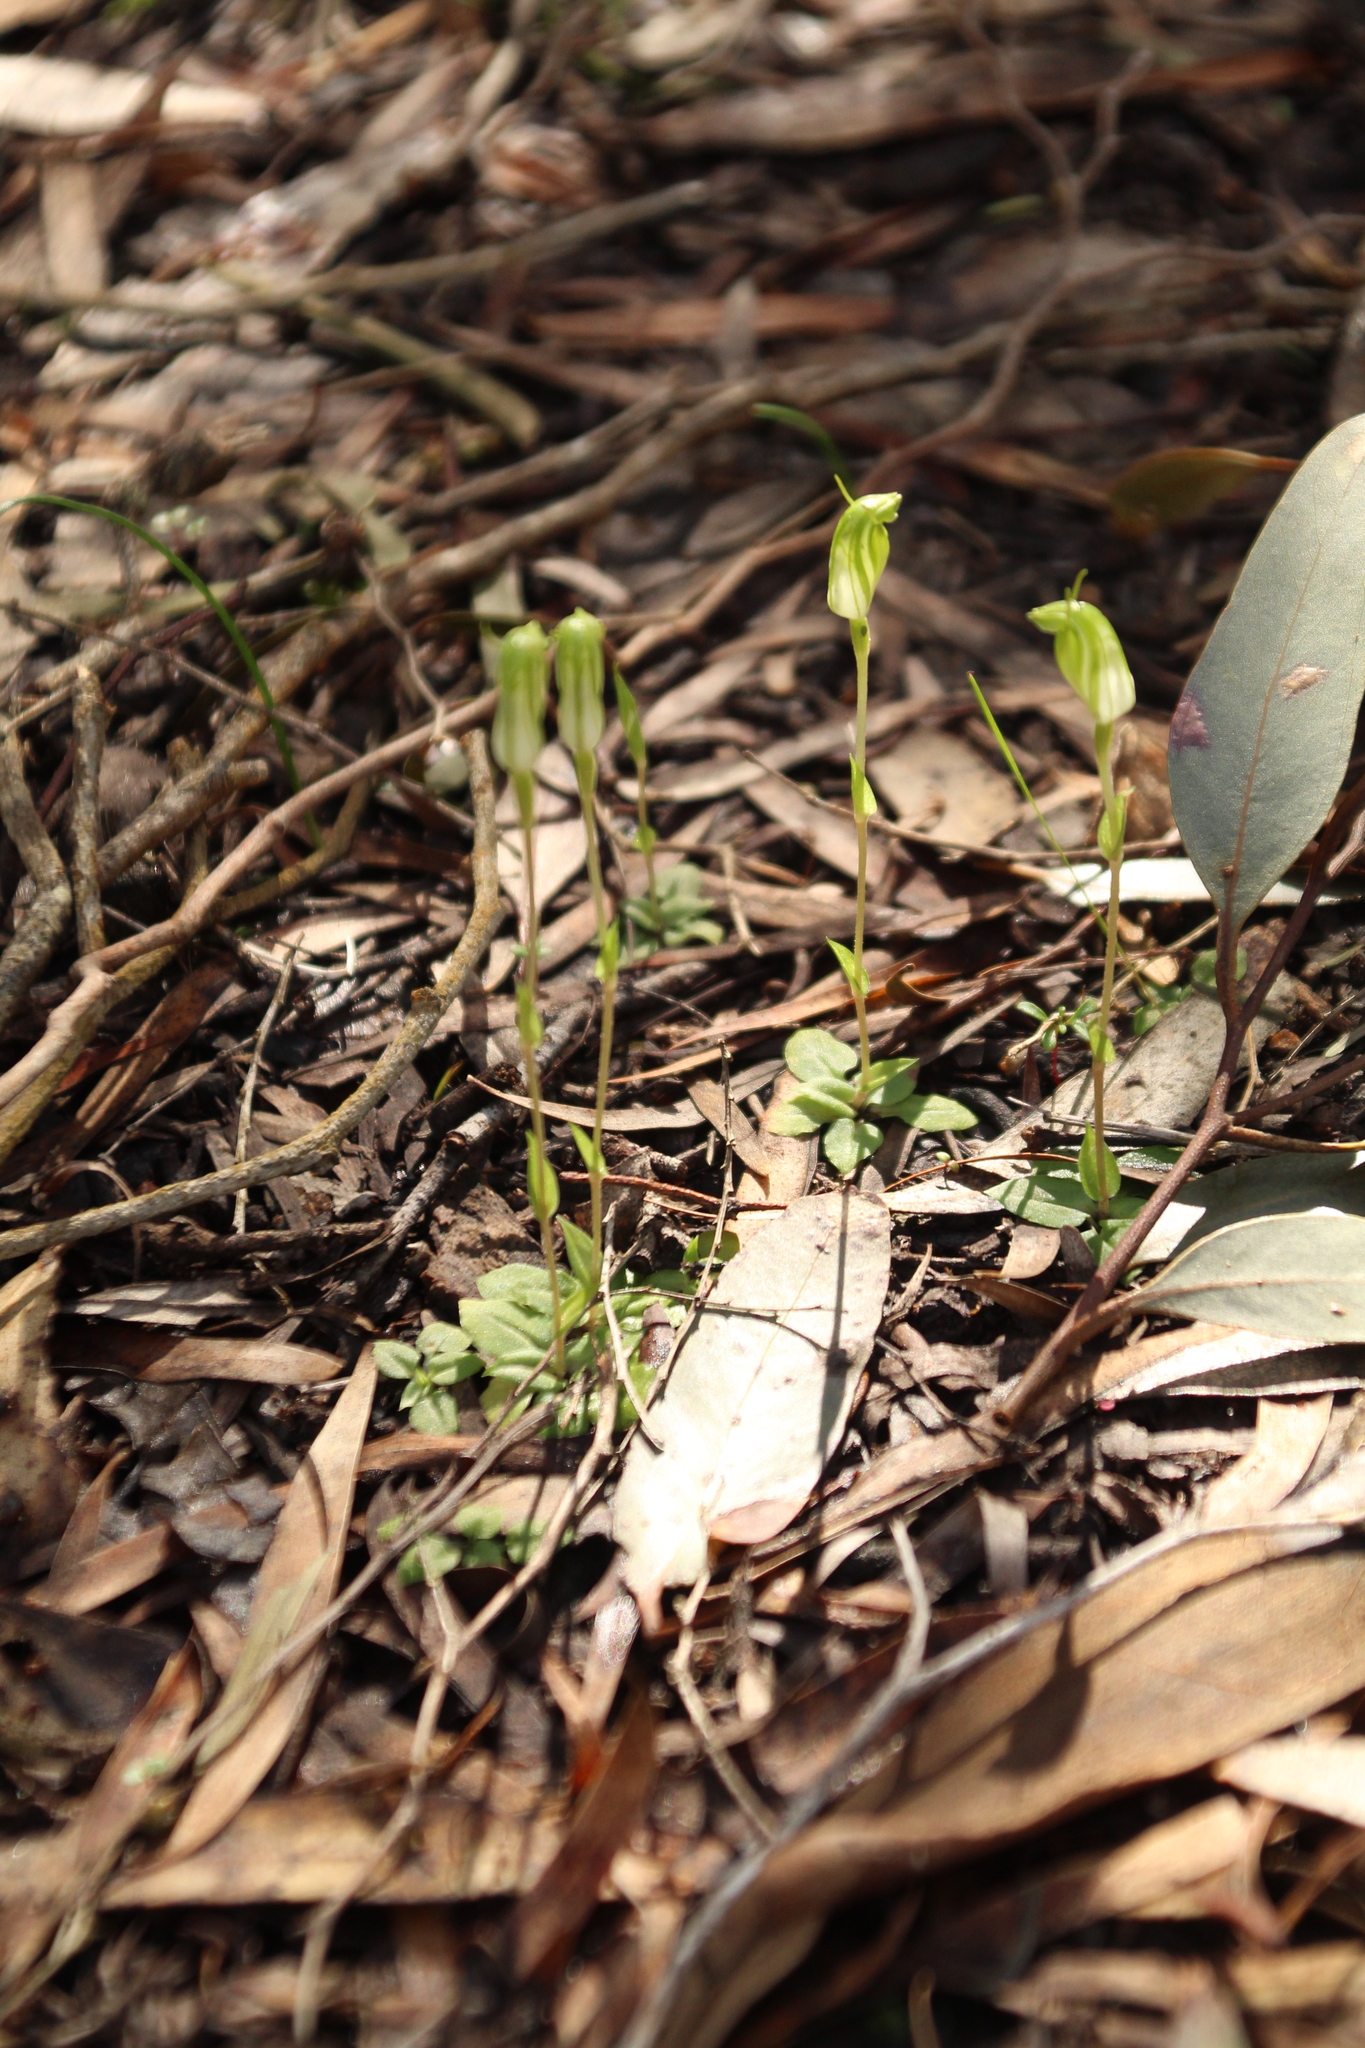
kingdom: Plantae
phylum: Tracheophyta
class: Liliopsida
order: Asparagales
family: Orchidaceae
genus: Pterostylis
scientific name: Pterostylis actites
